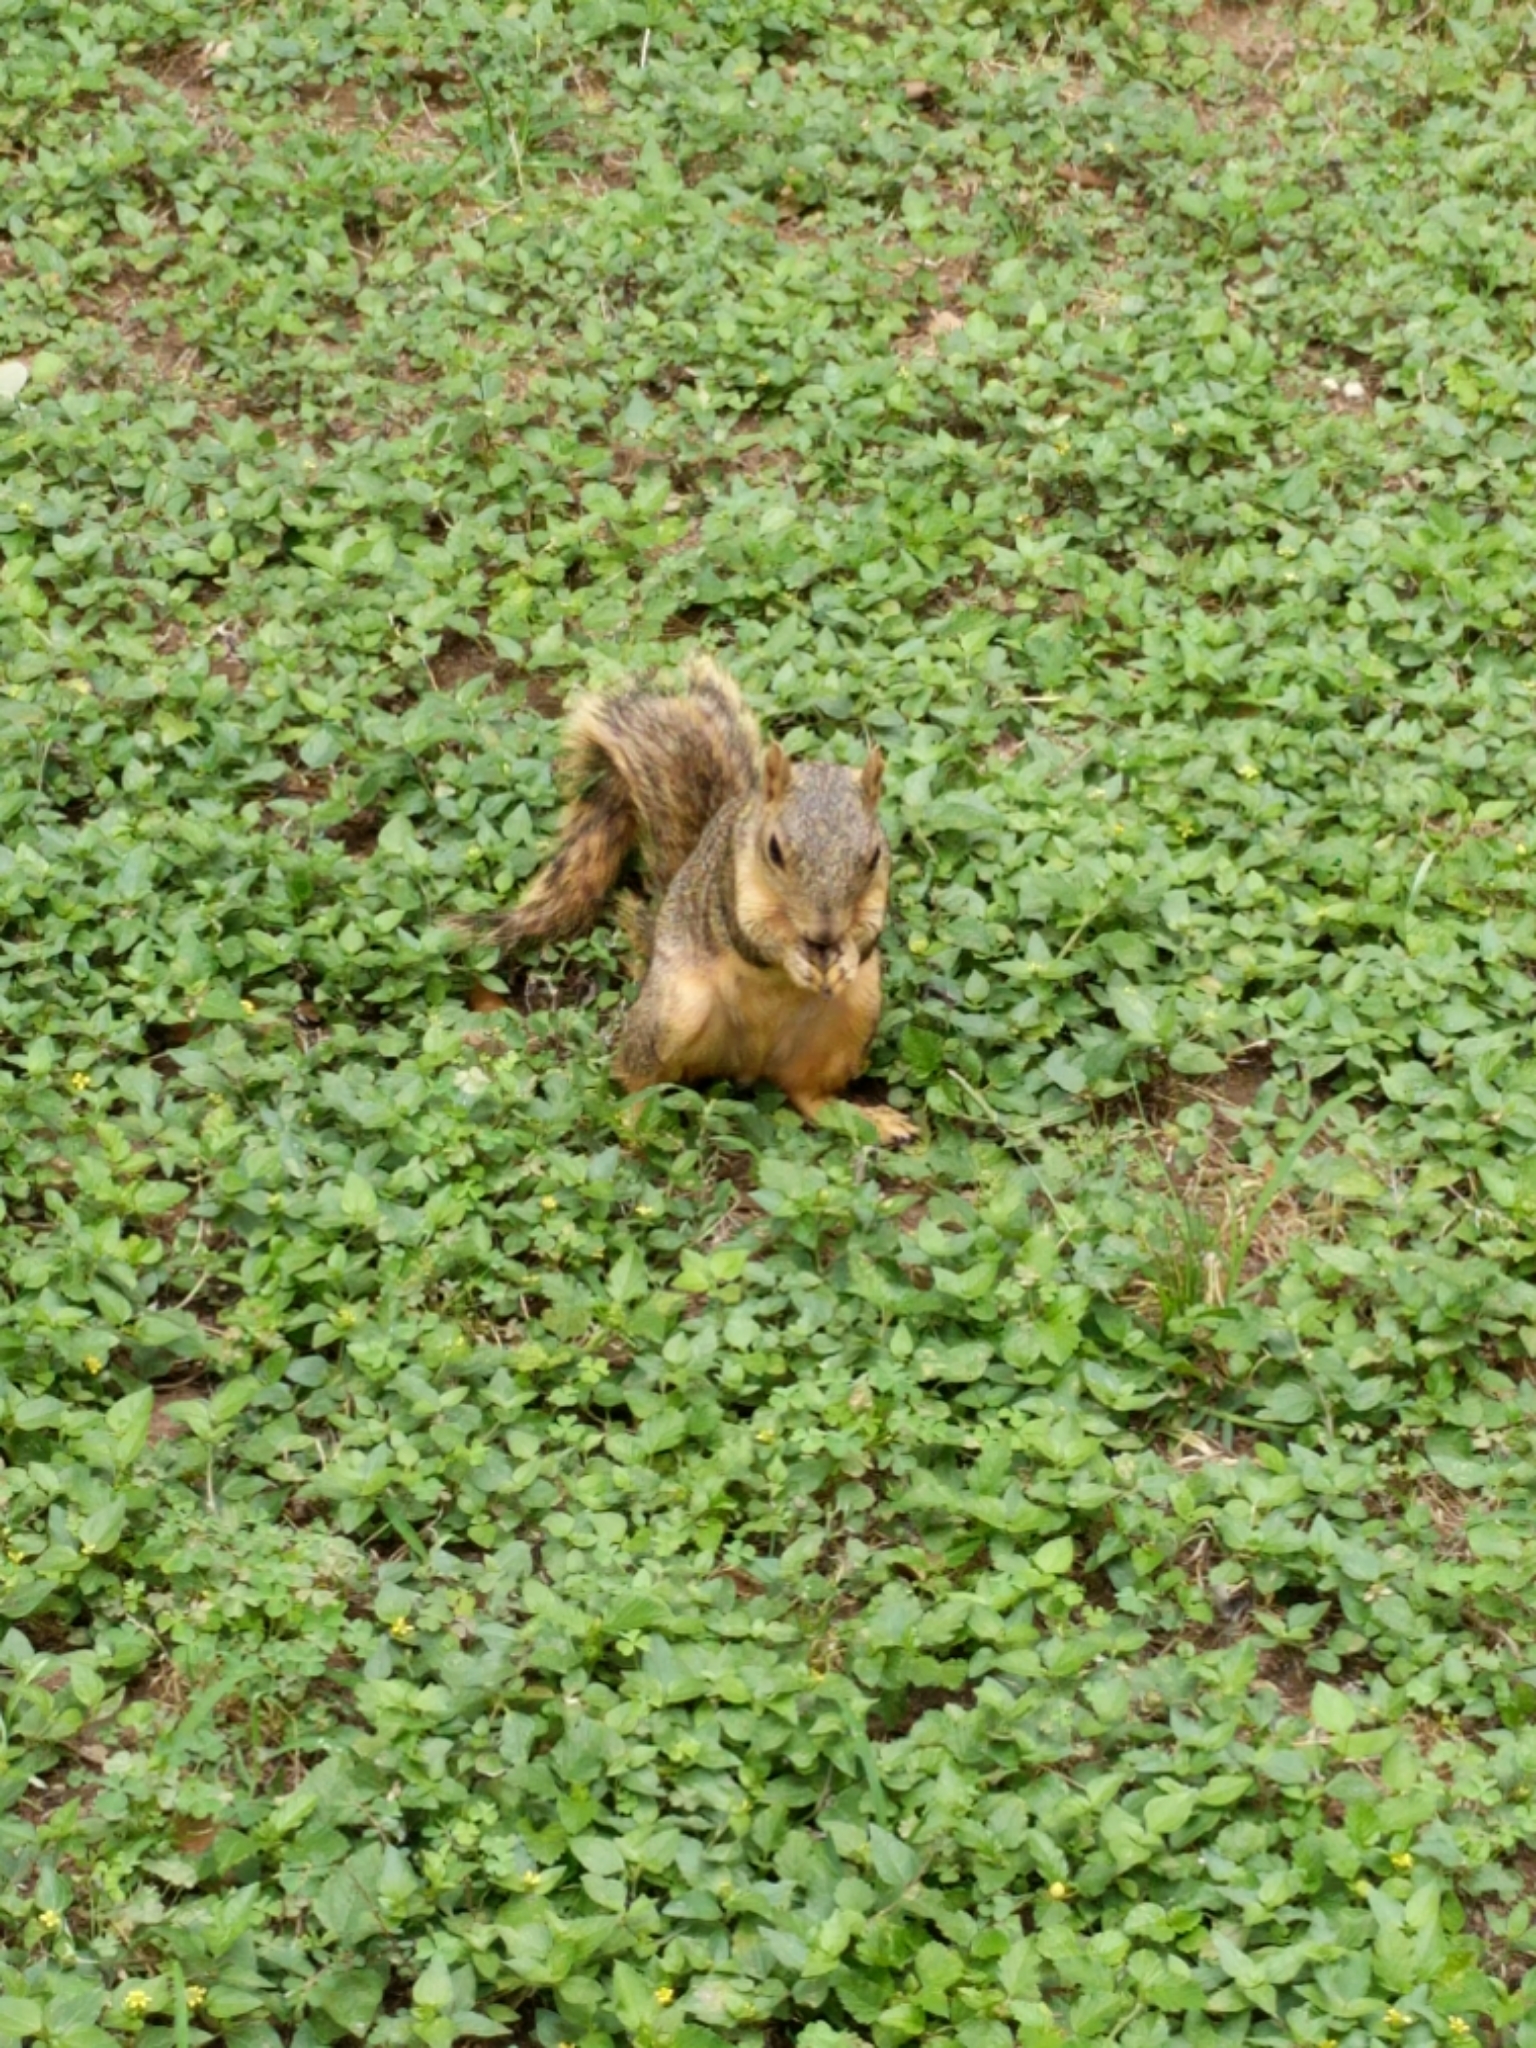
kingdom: Animalia
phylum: Chordata
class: Mammalia
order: Rodentia
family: Sciuridae
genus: Sciurus
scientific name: Sciurus niger
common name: Fox squirrel
